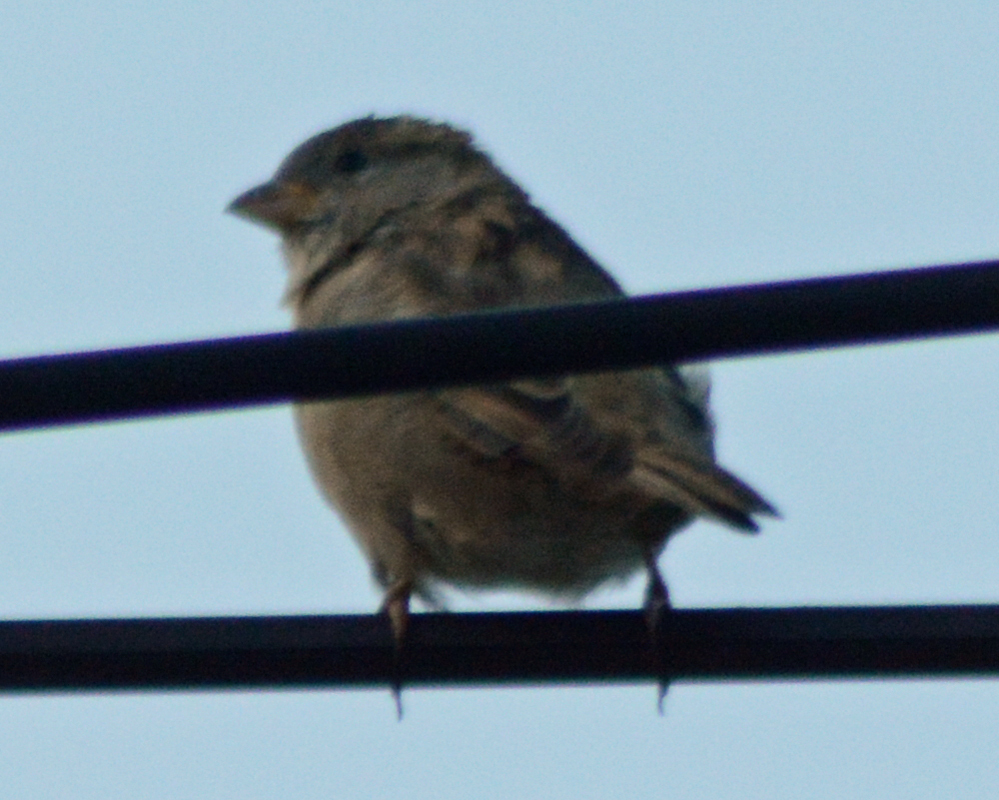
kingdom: Animalia
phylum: Chordata
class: Aves
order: Passeriformes
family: Passeridae
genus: Passer
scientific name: Passer domesticus
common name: House sparrow
